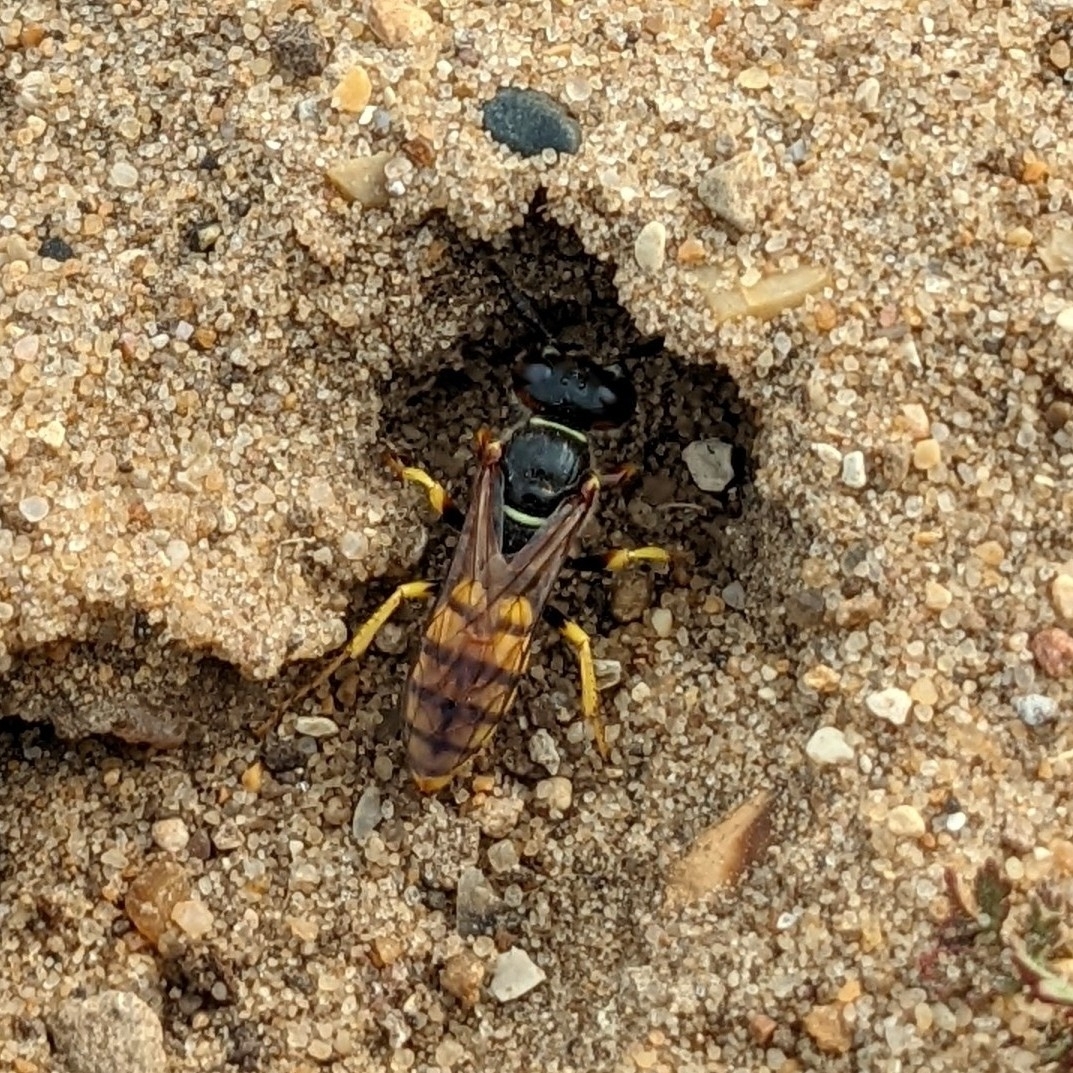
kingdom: Animalia
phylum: Arthropoda
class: Insecta
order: Hymenoptera
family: Crabronidae
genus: Philanthus
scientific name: Philanthus triangulum
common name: Bee wolf
